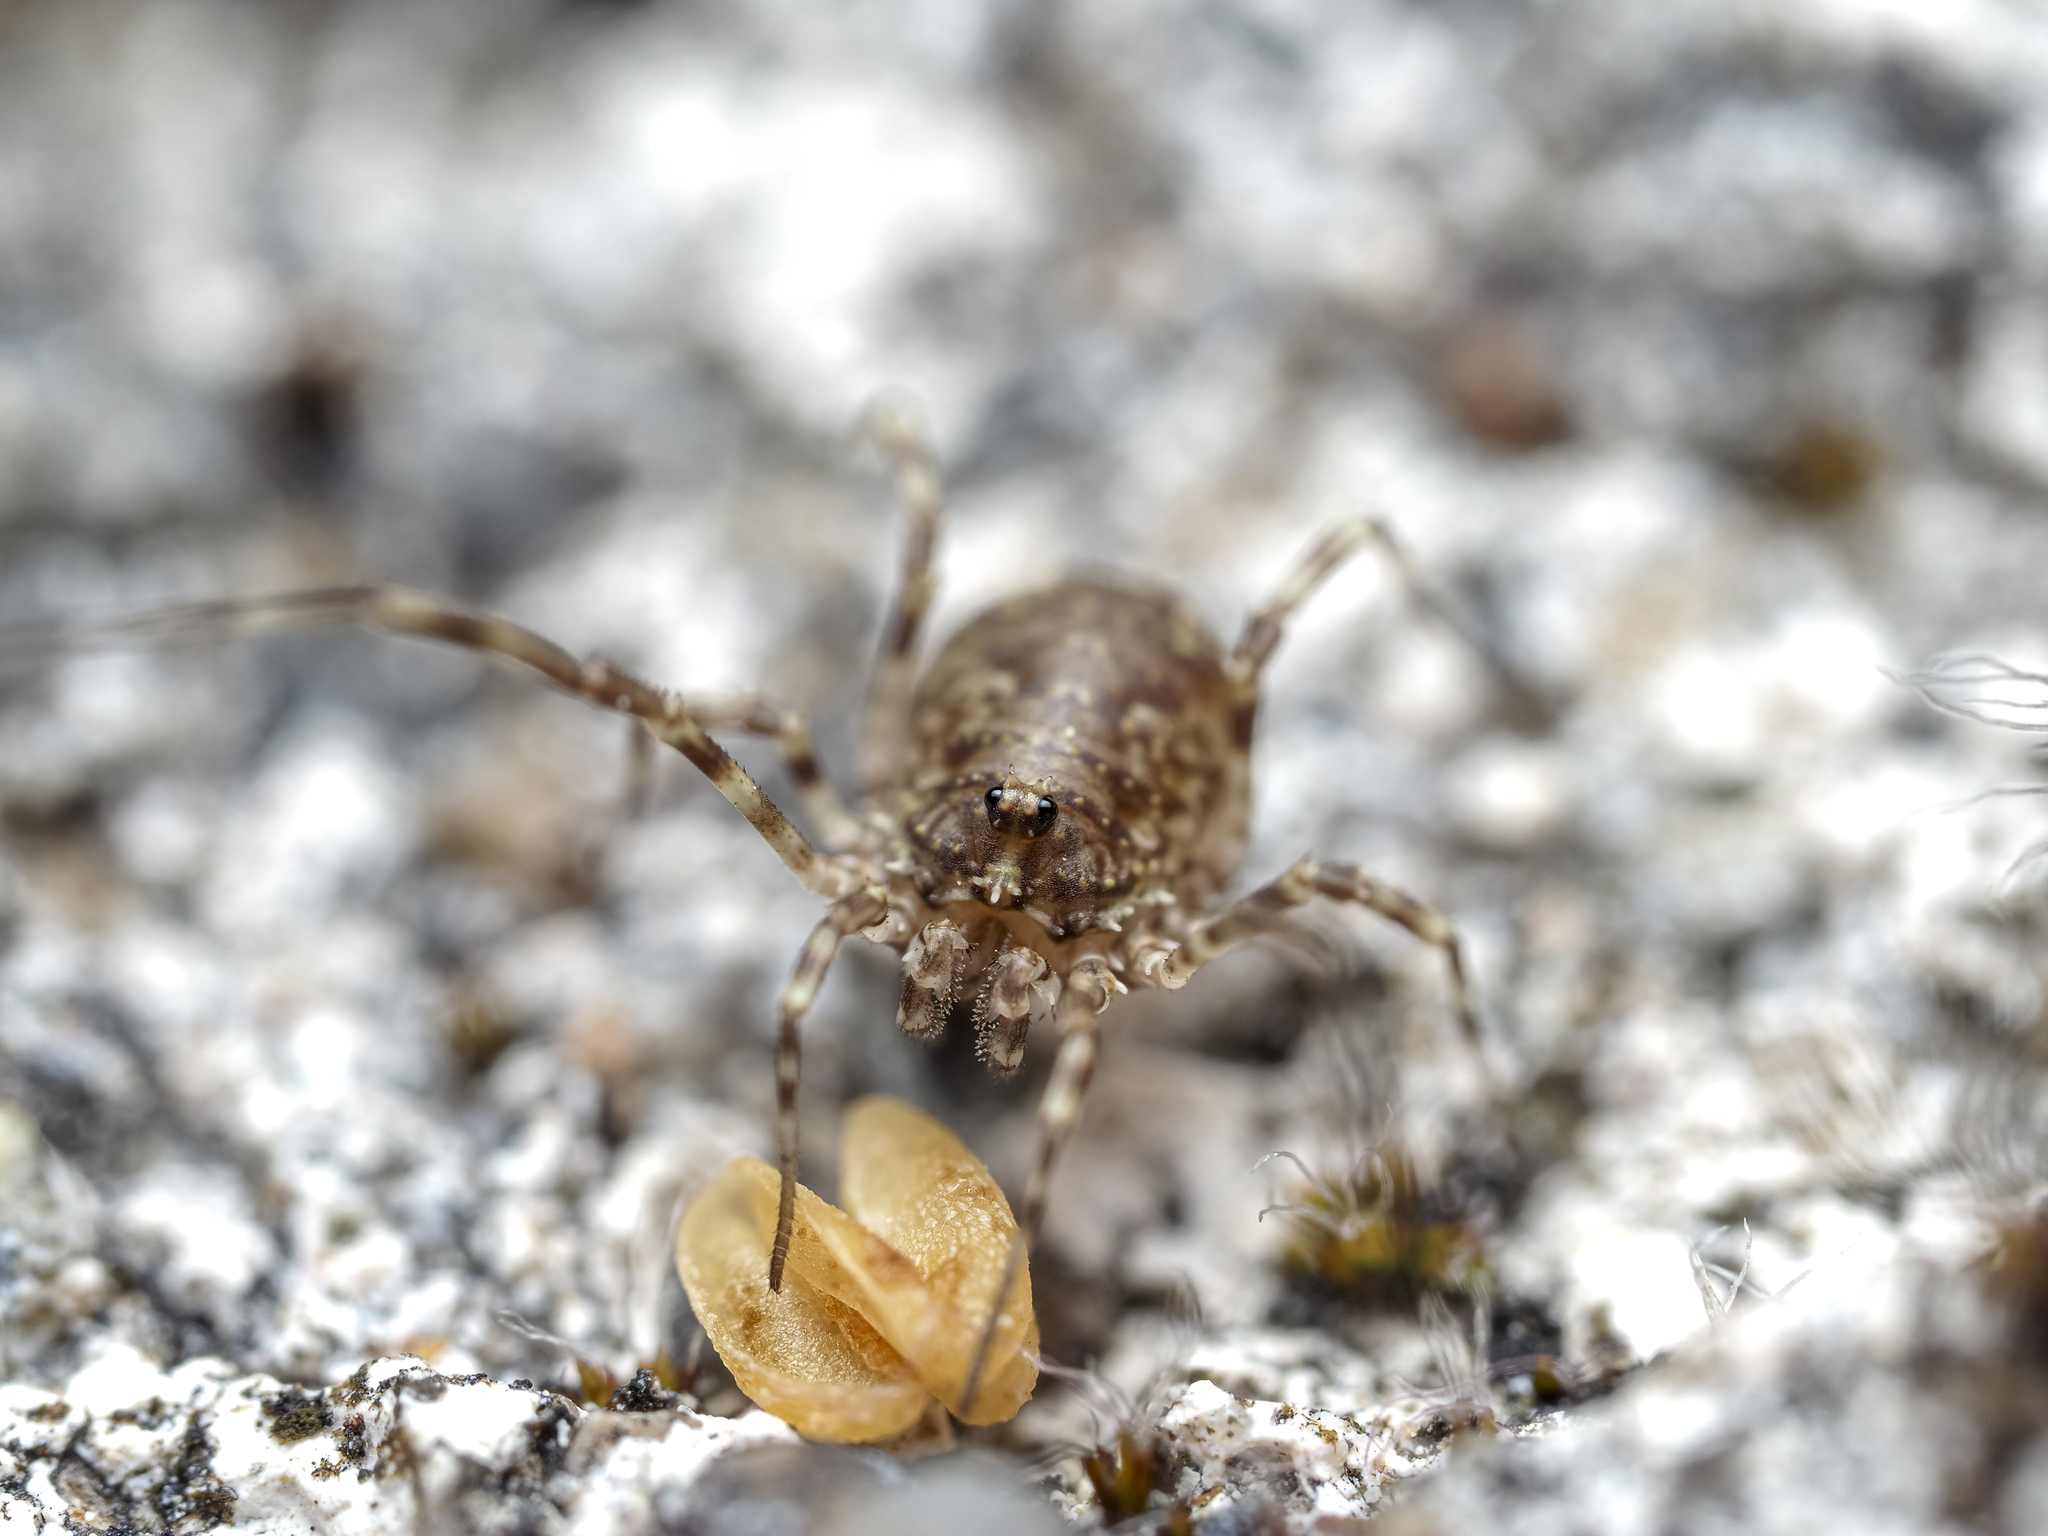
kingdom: Animalia
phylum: Arthropoda
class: Arachnida
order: Opiliones
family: Phalangiidae
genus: Lacinius
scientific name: Lacinius dentiger
